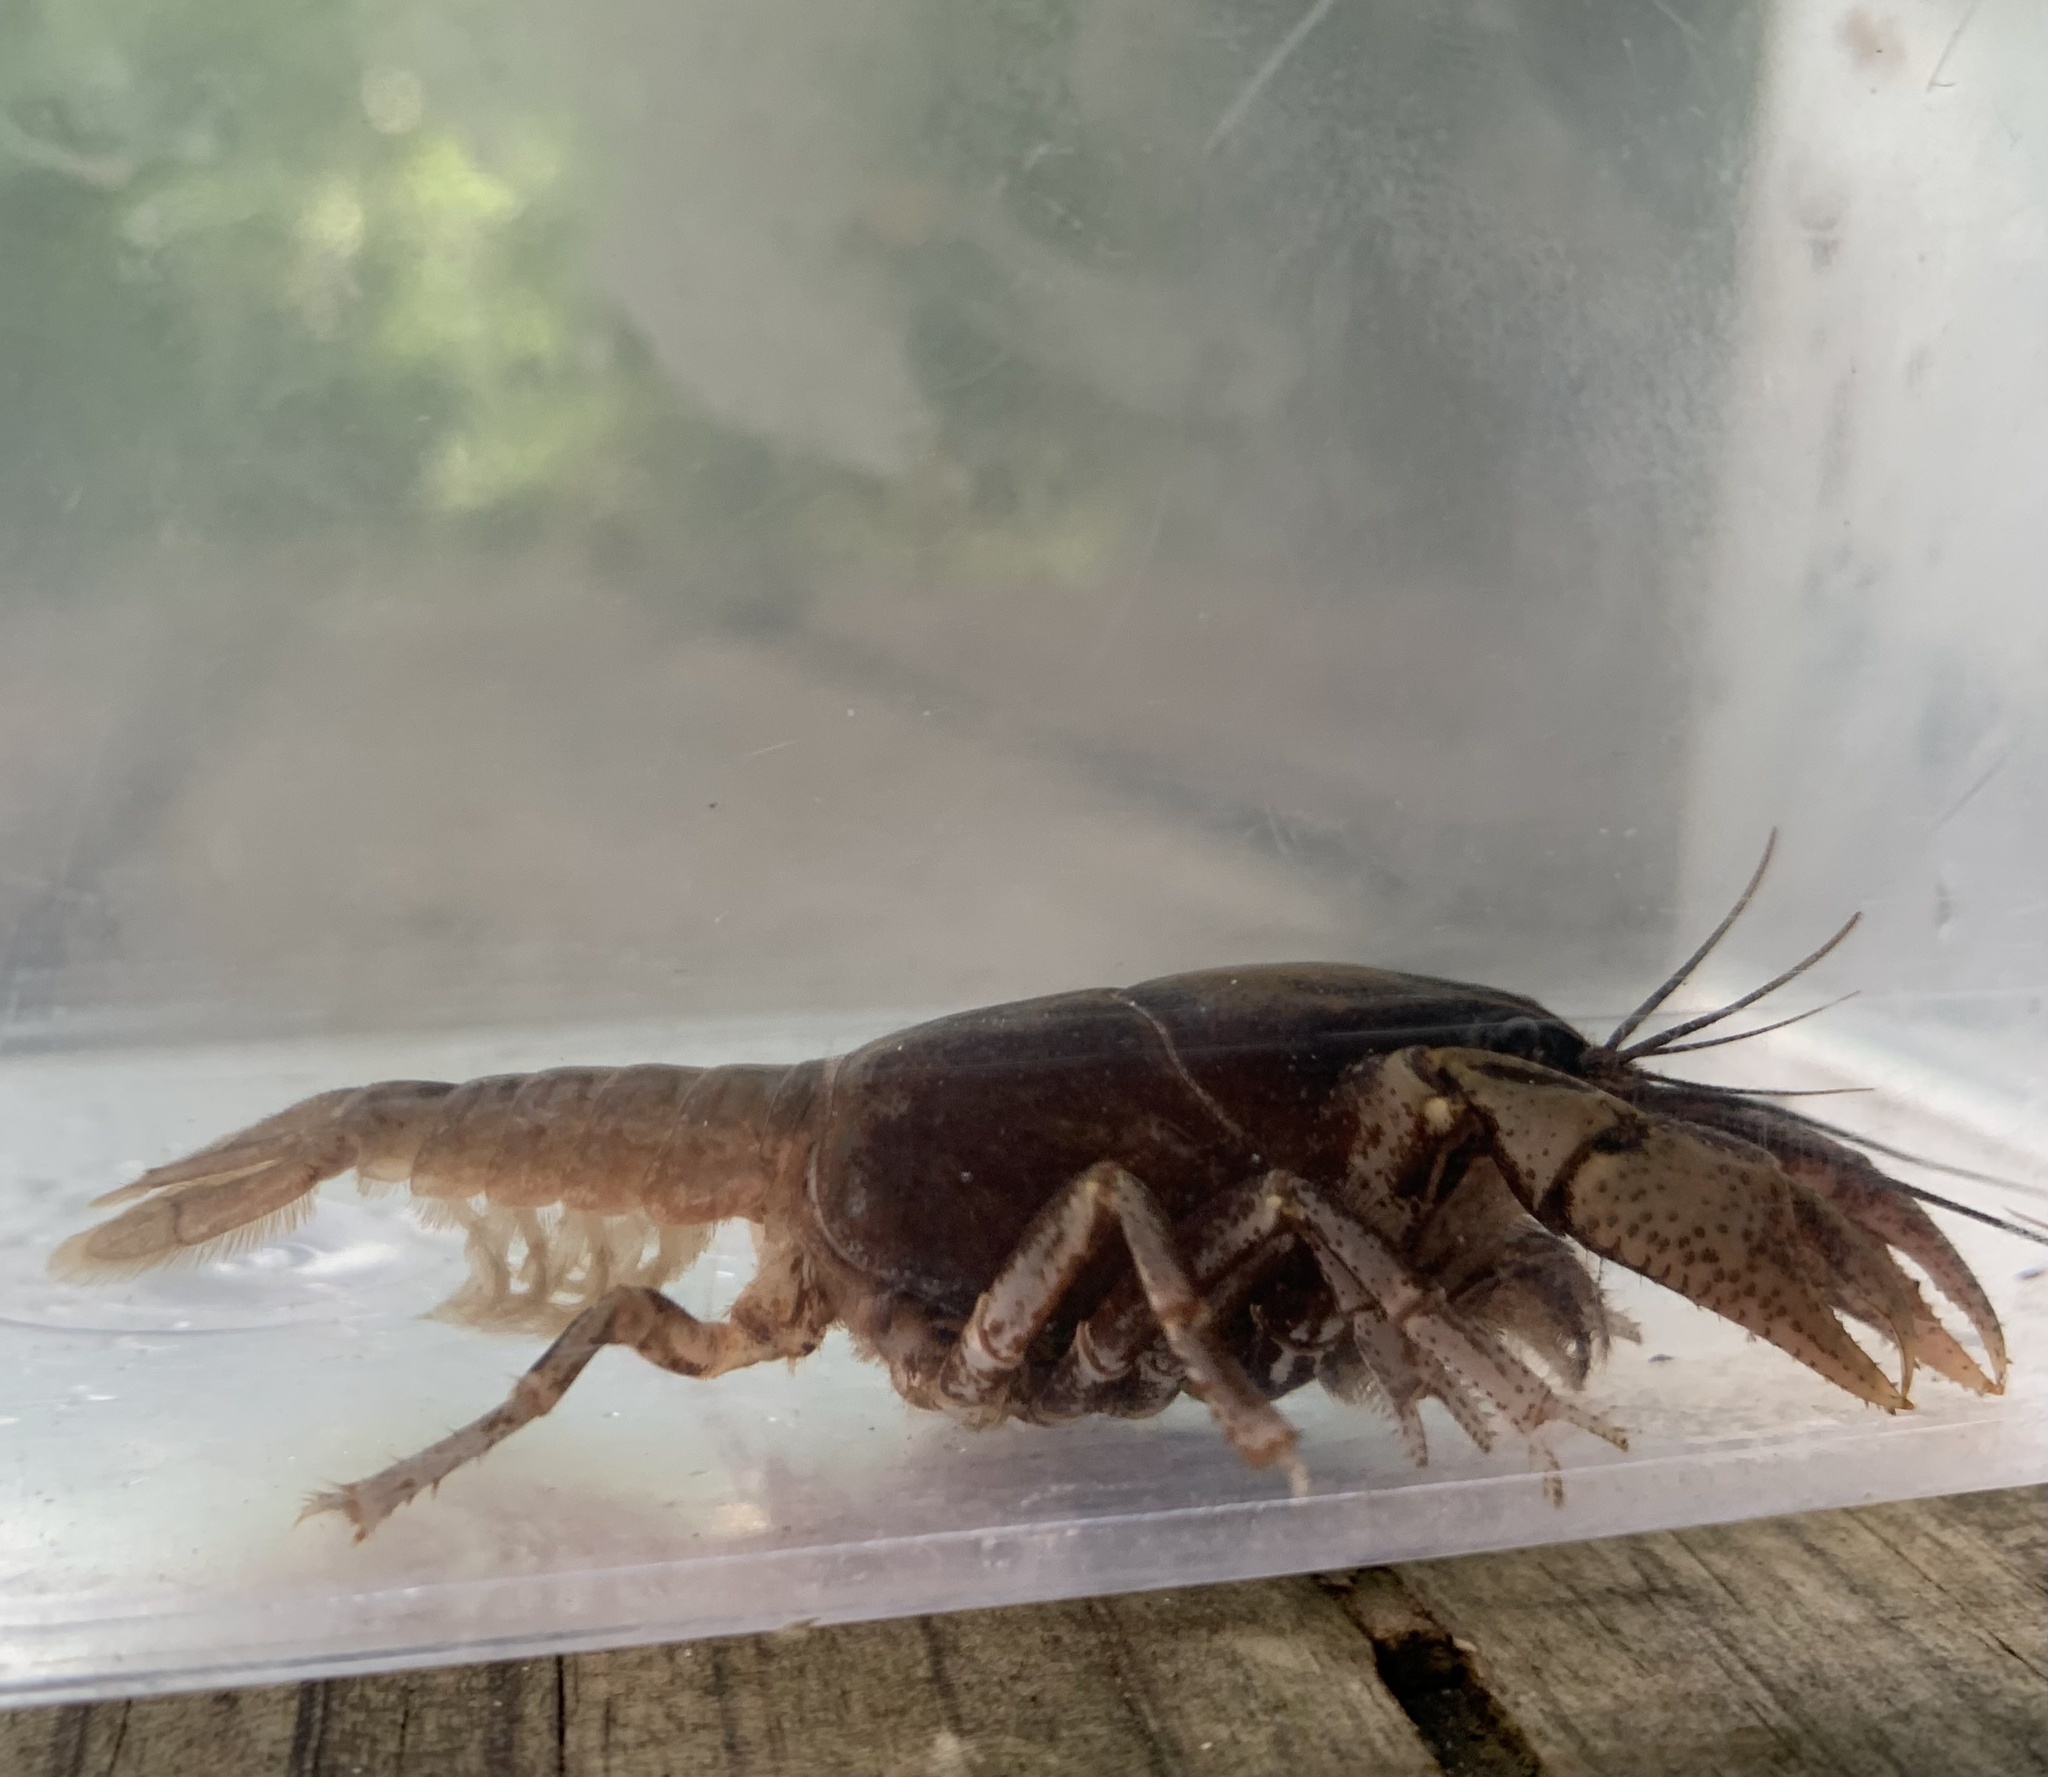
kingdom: Animalia
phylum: Arthropoda
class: Malacostraca
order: Decapoda
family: Cambaridae
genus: Fallicambarus
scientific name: Fallicambarus houstonensis
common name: Houston burrowing crayfish
